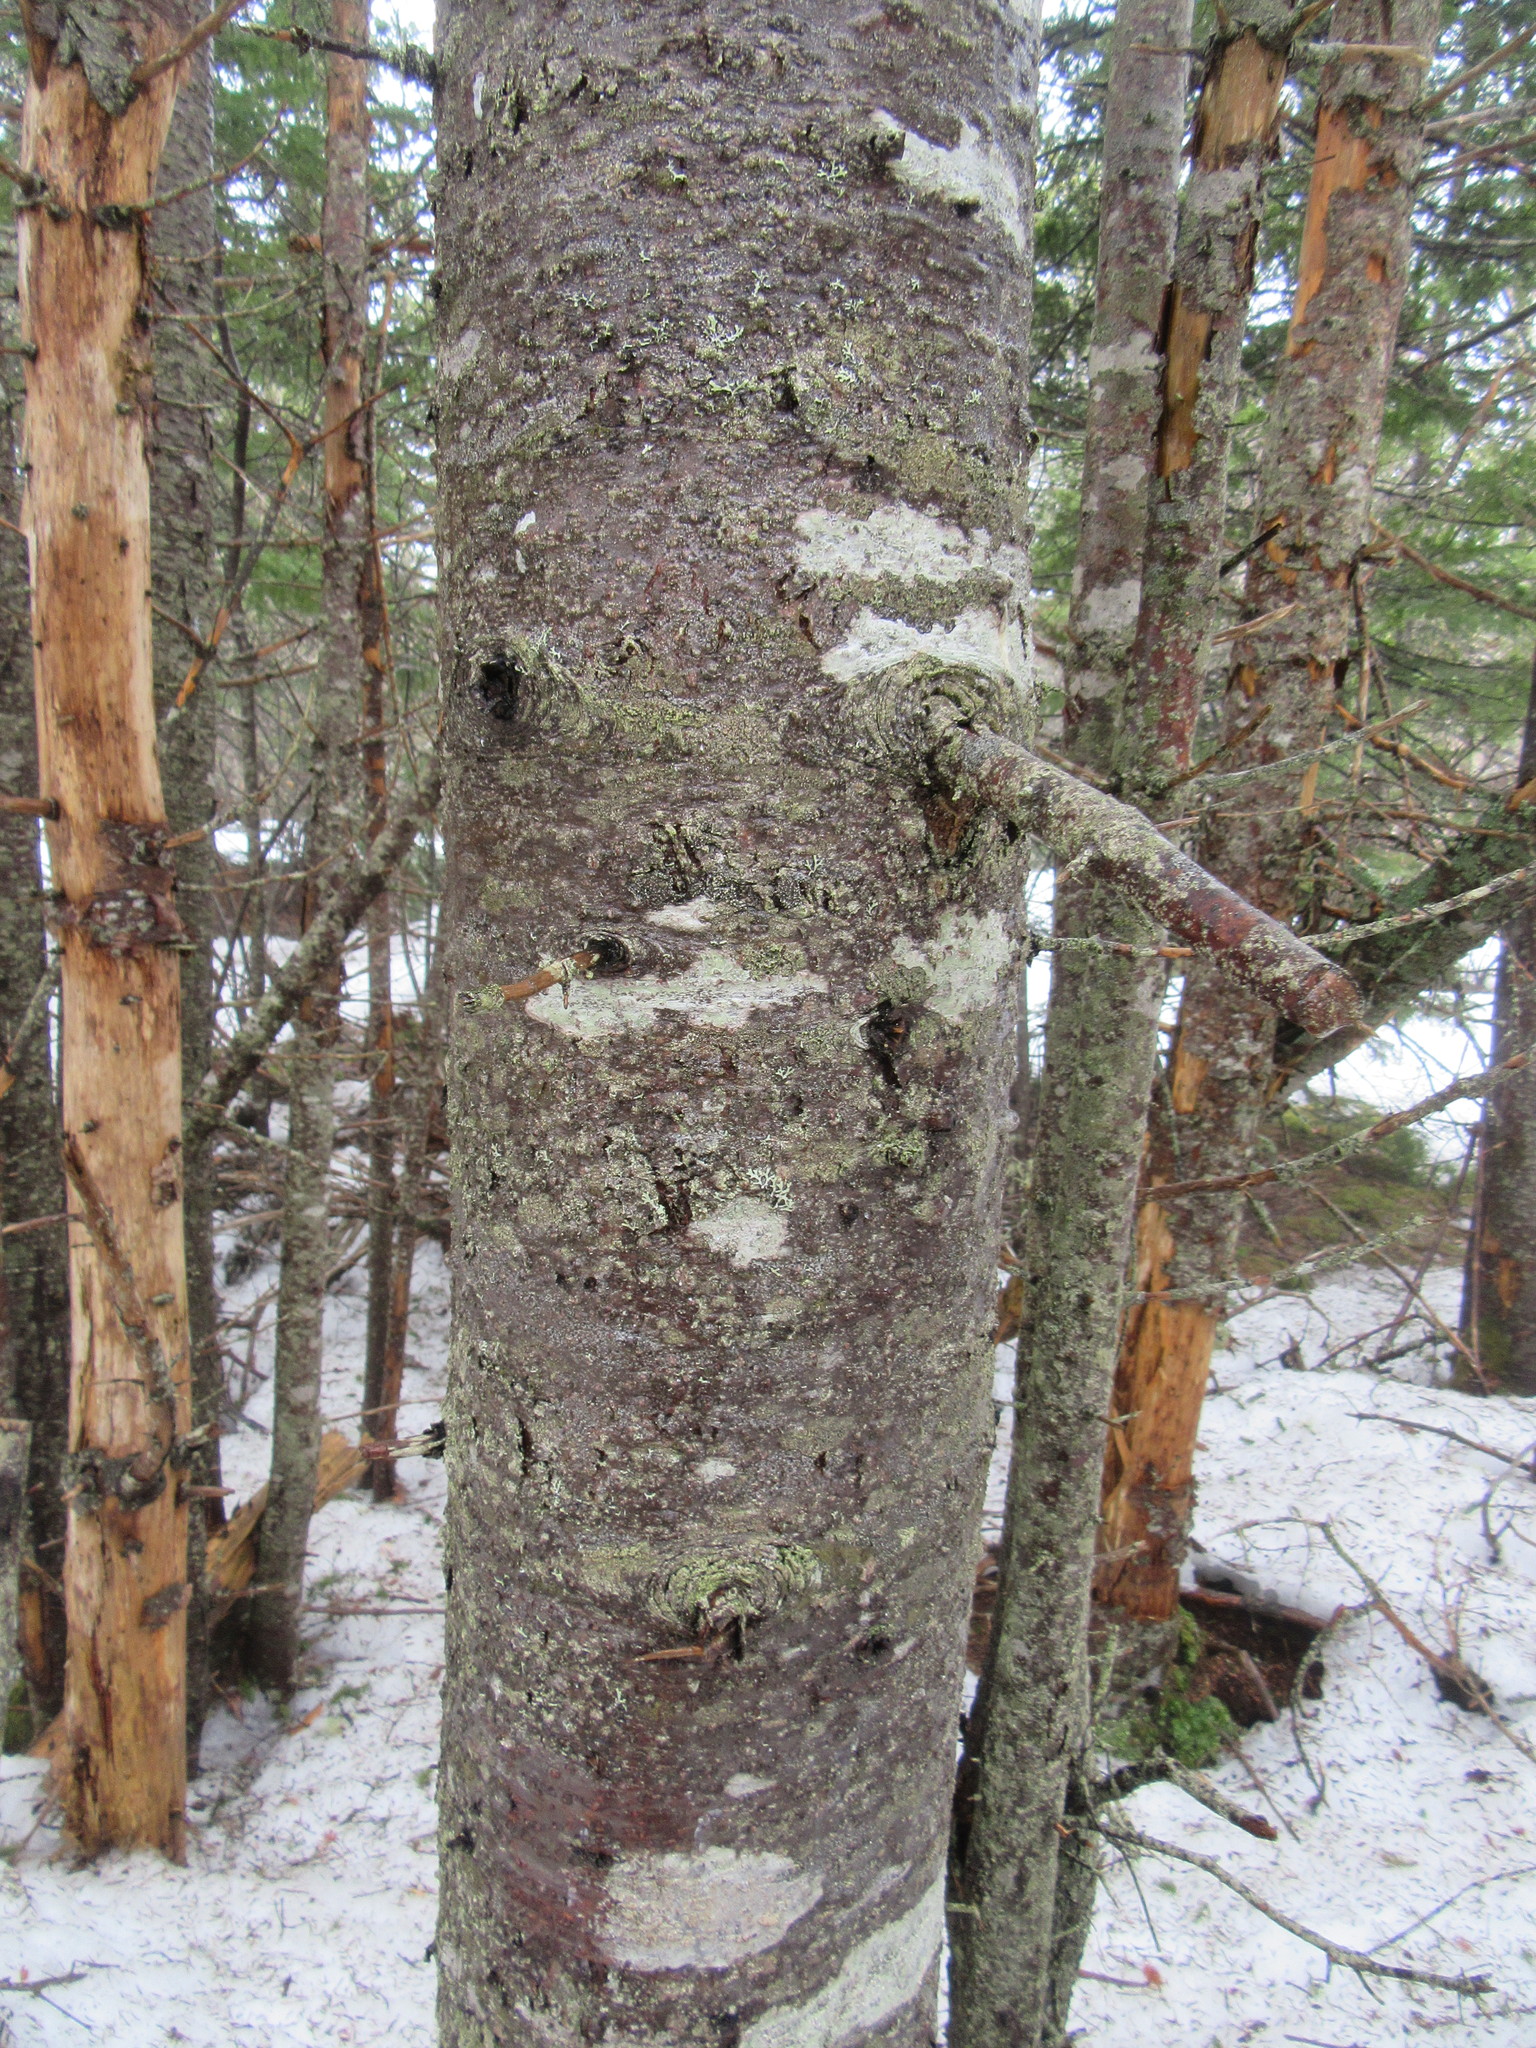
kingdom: Plantae
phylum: Tracheophyta
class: Pinopsida
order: Pinales
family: Pinaceae
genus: Abies
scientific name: Abies balsamea
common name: Balsam fir
